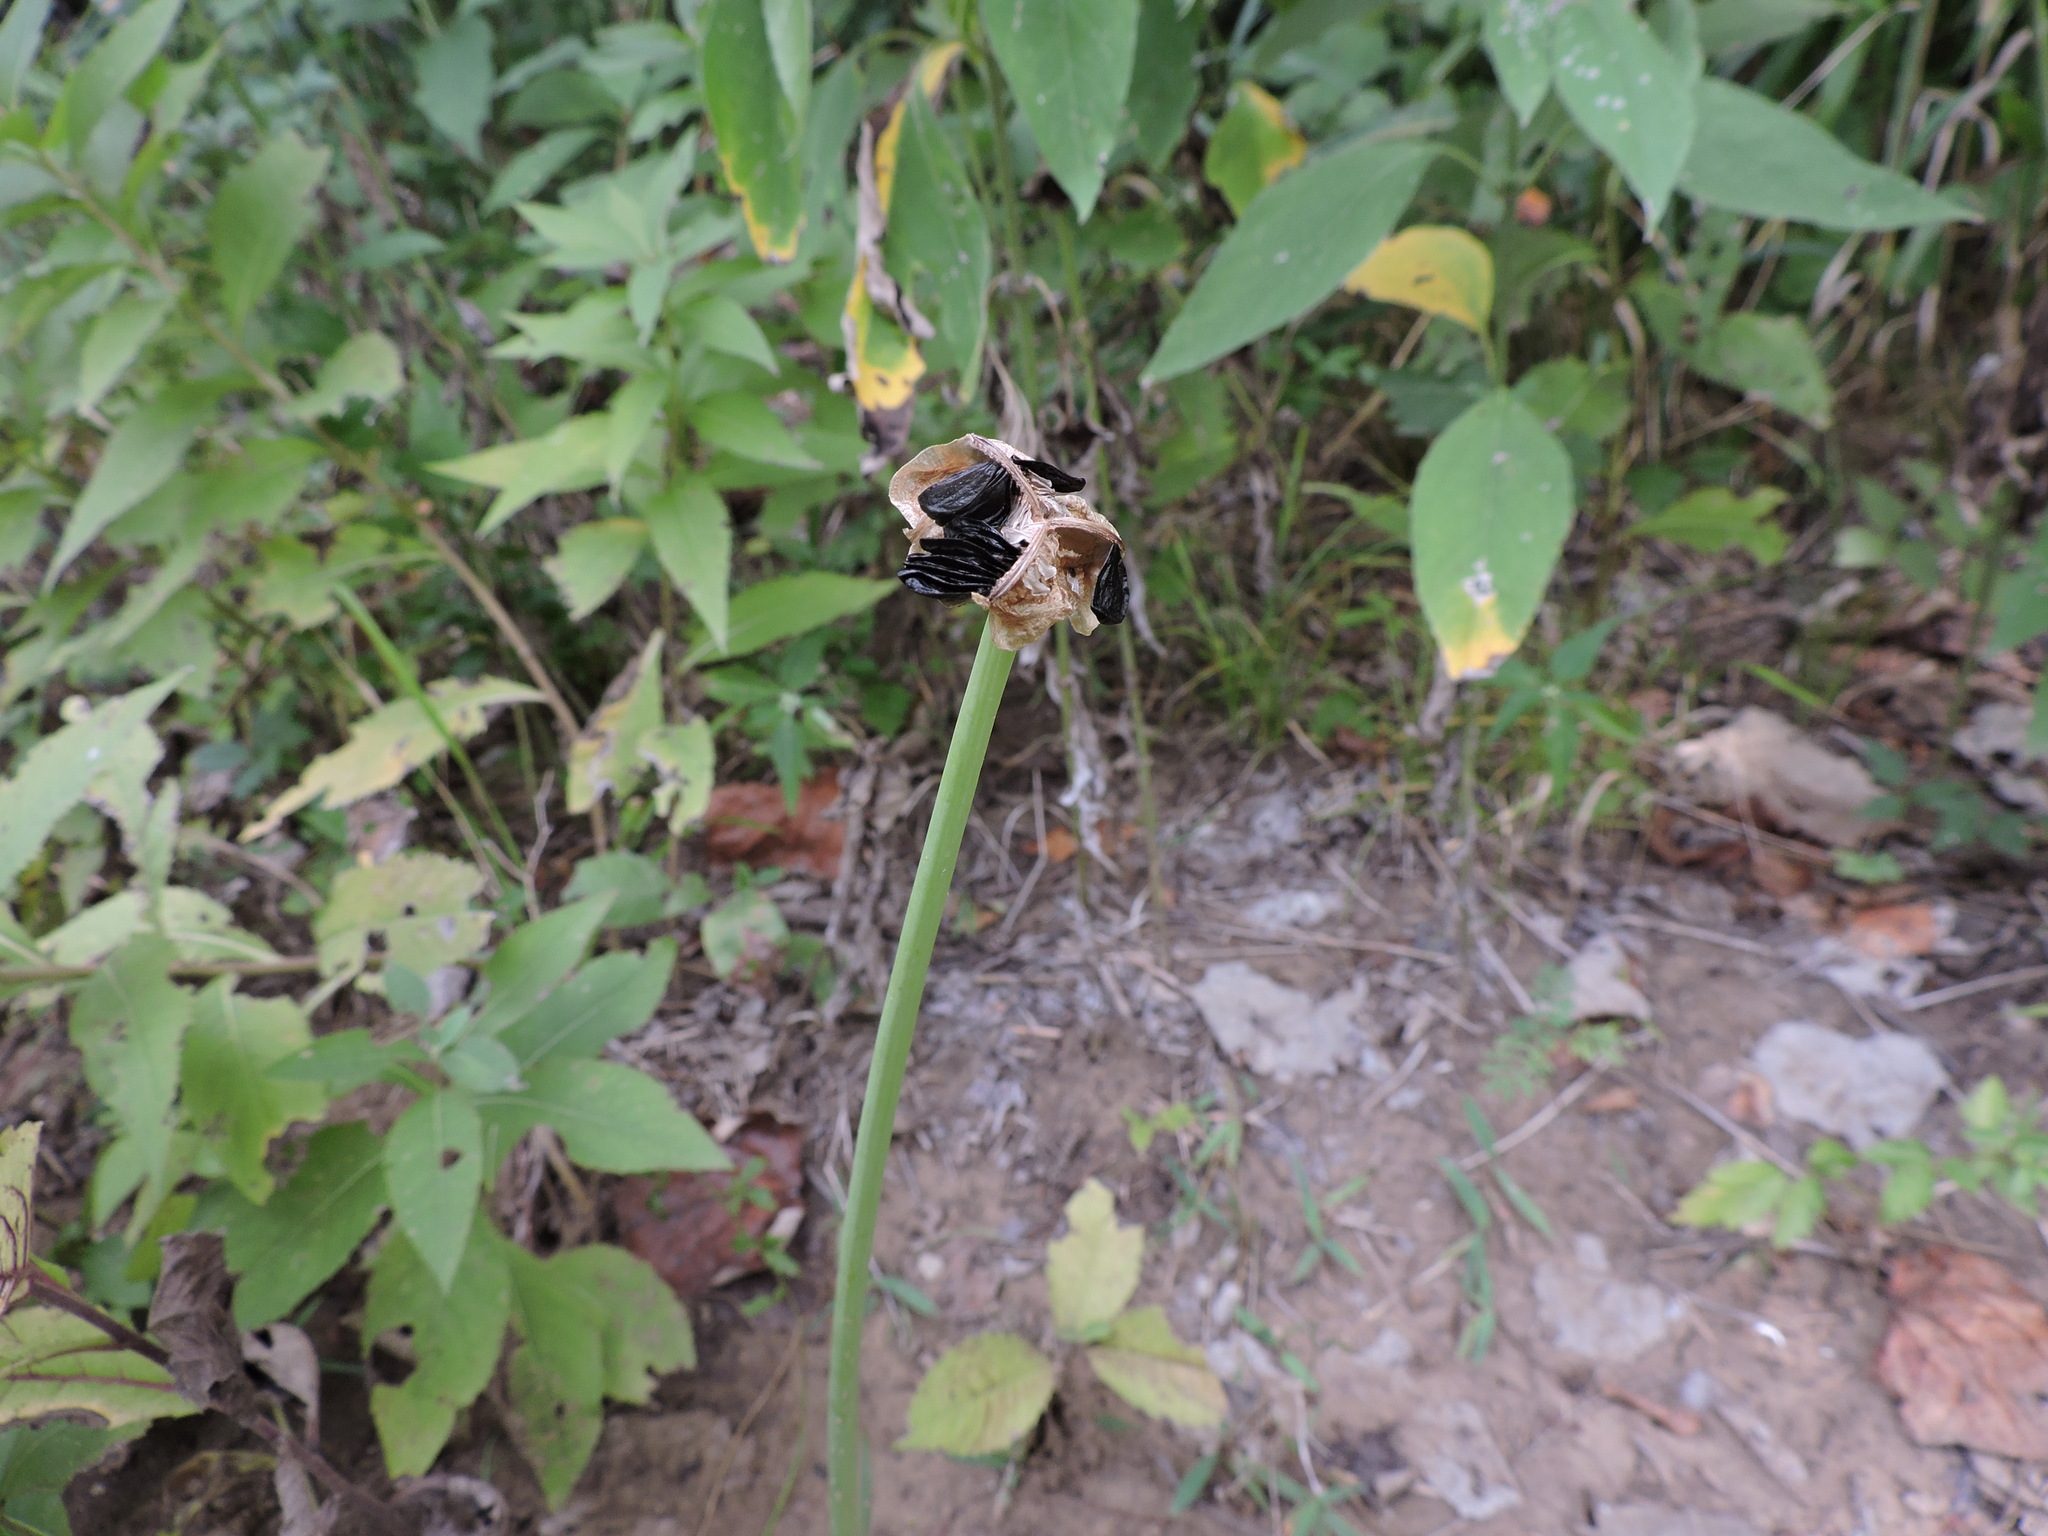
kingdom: Plantae
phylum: Tracheophyta
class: Liliopsida
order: Asparagales
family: Amaryllidaceae
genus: Zephyranthes
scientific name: Zephyranthes chlorosolen
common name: Evening rain-lily
